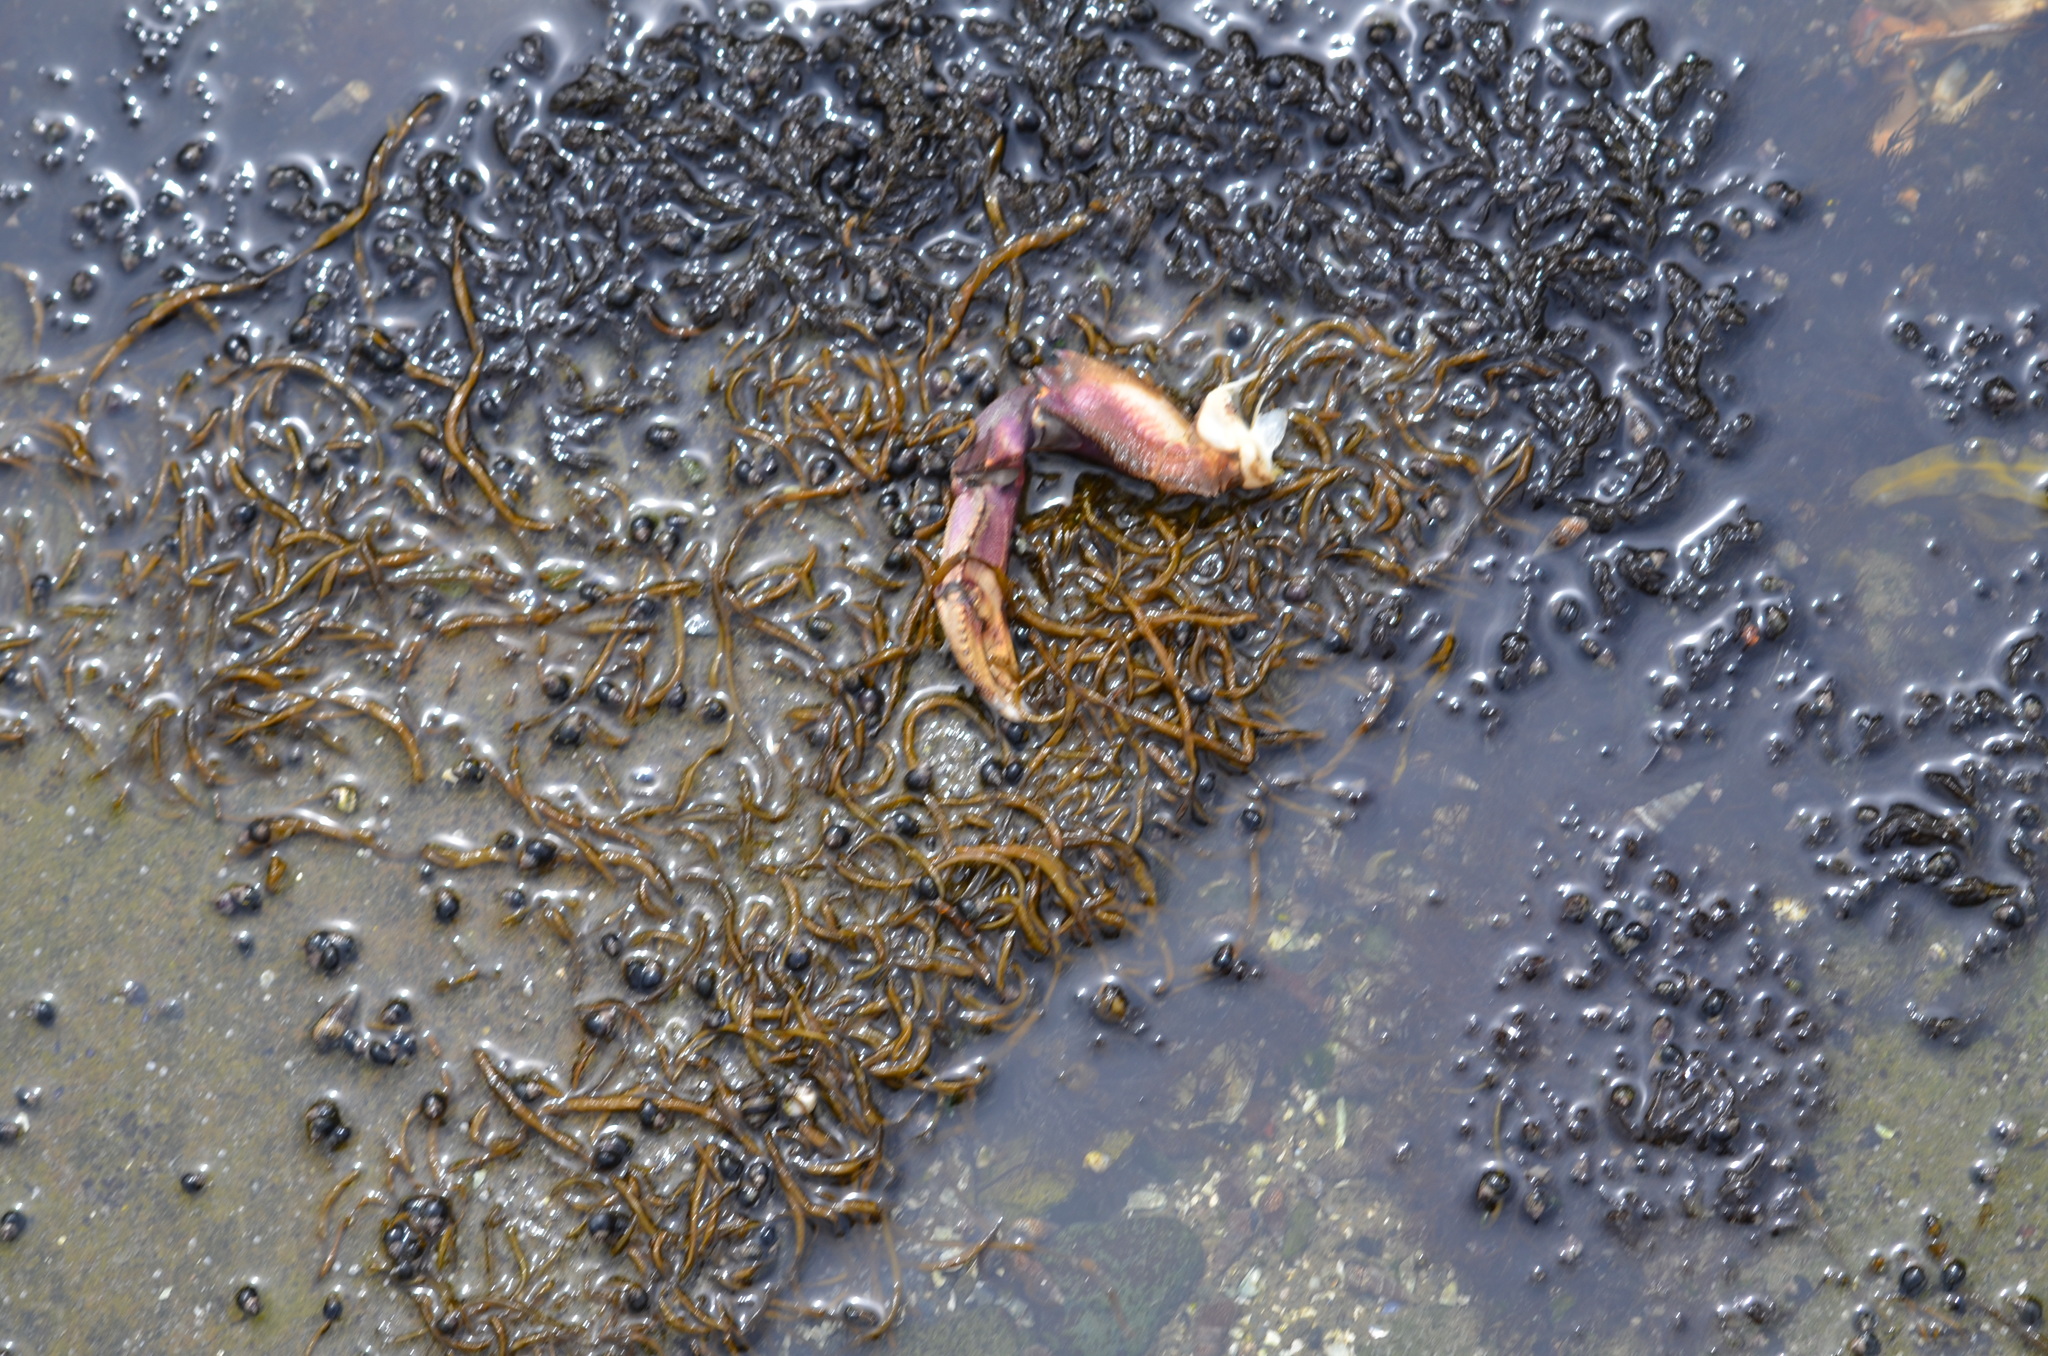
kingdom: Animalia
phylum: Arthropoda
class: Malacostraca
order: Decapoda
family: Cancridae
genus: Metacarcinus
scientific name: Metacarcinus magister
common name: Californian crab
